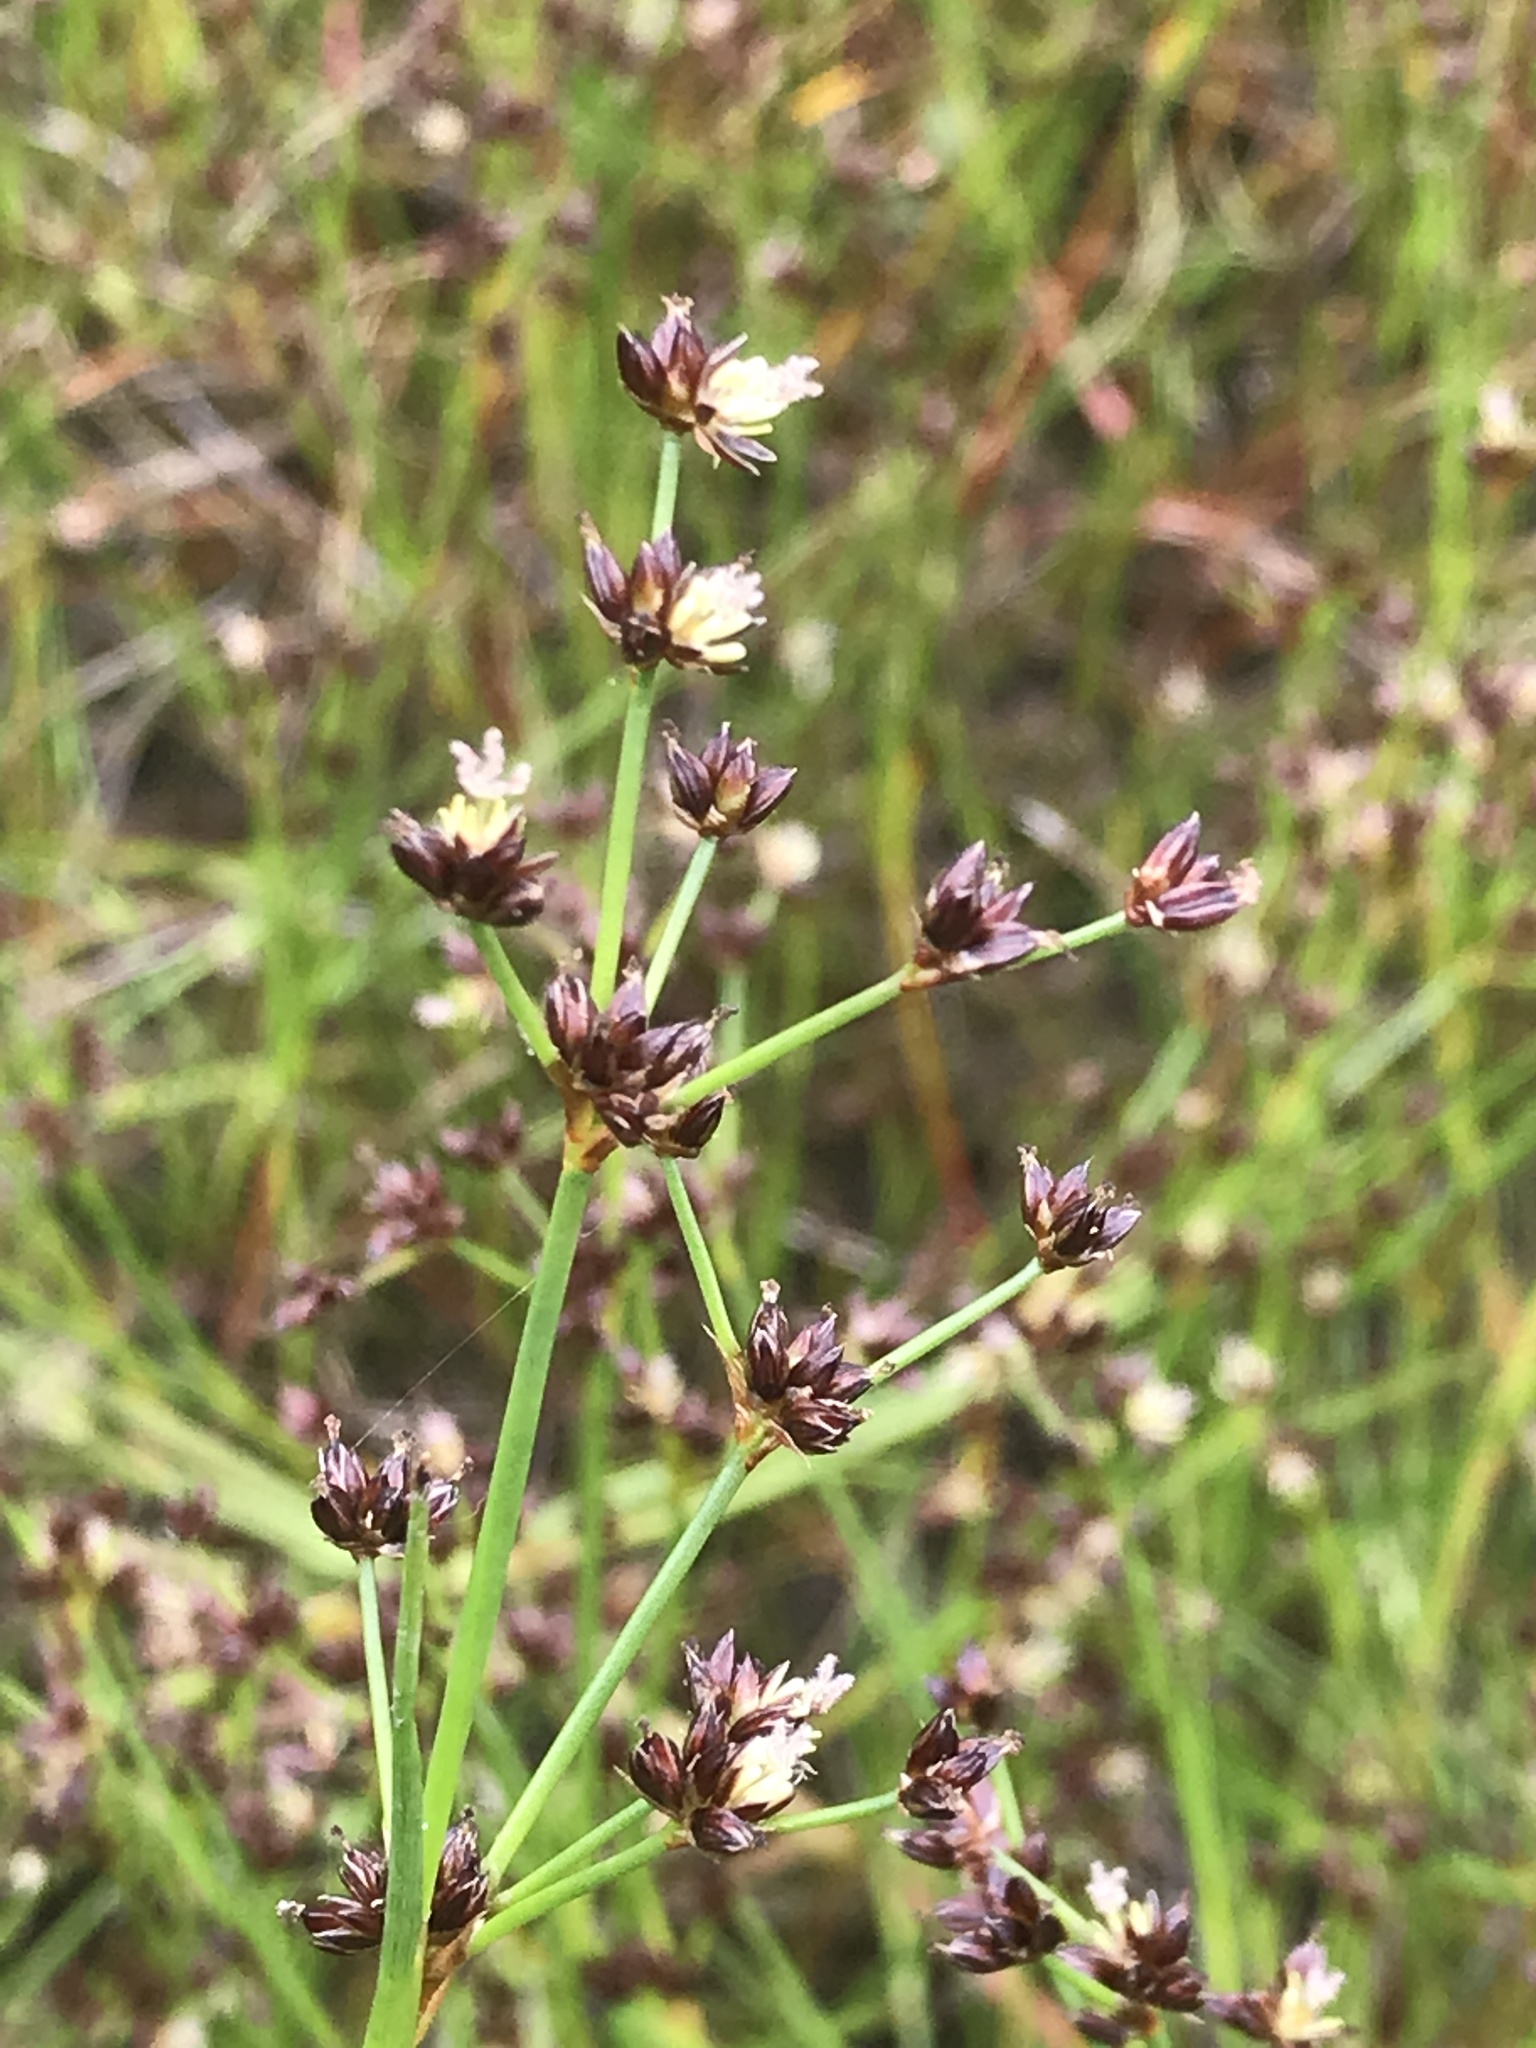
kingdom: Plantae
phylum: Tracheophyta
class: Liliopsida
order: Poales
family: Juncaceae
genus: Juncus
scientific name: Juncus articulatus
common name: Jointed rush
